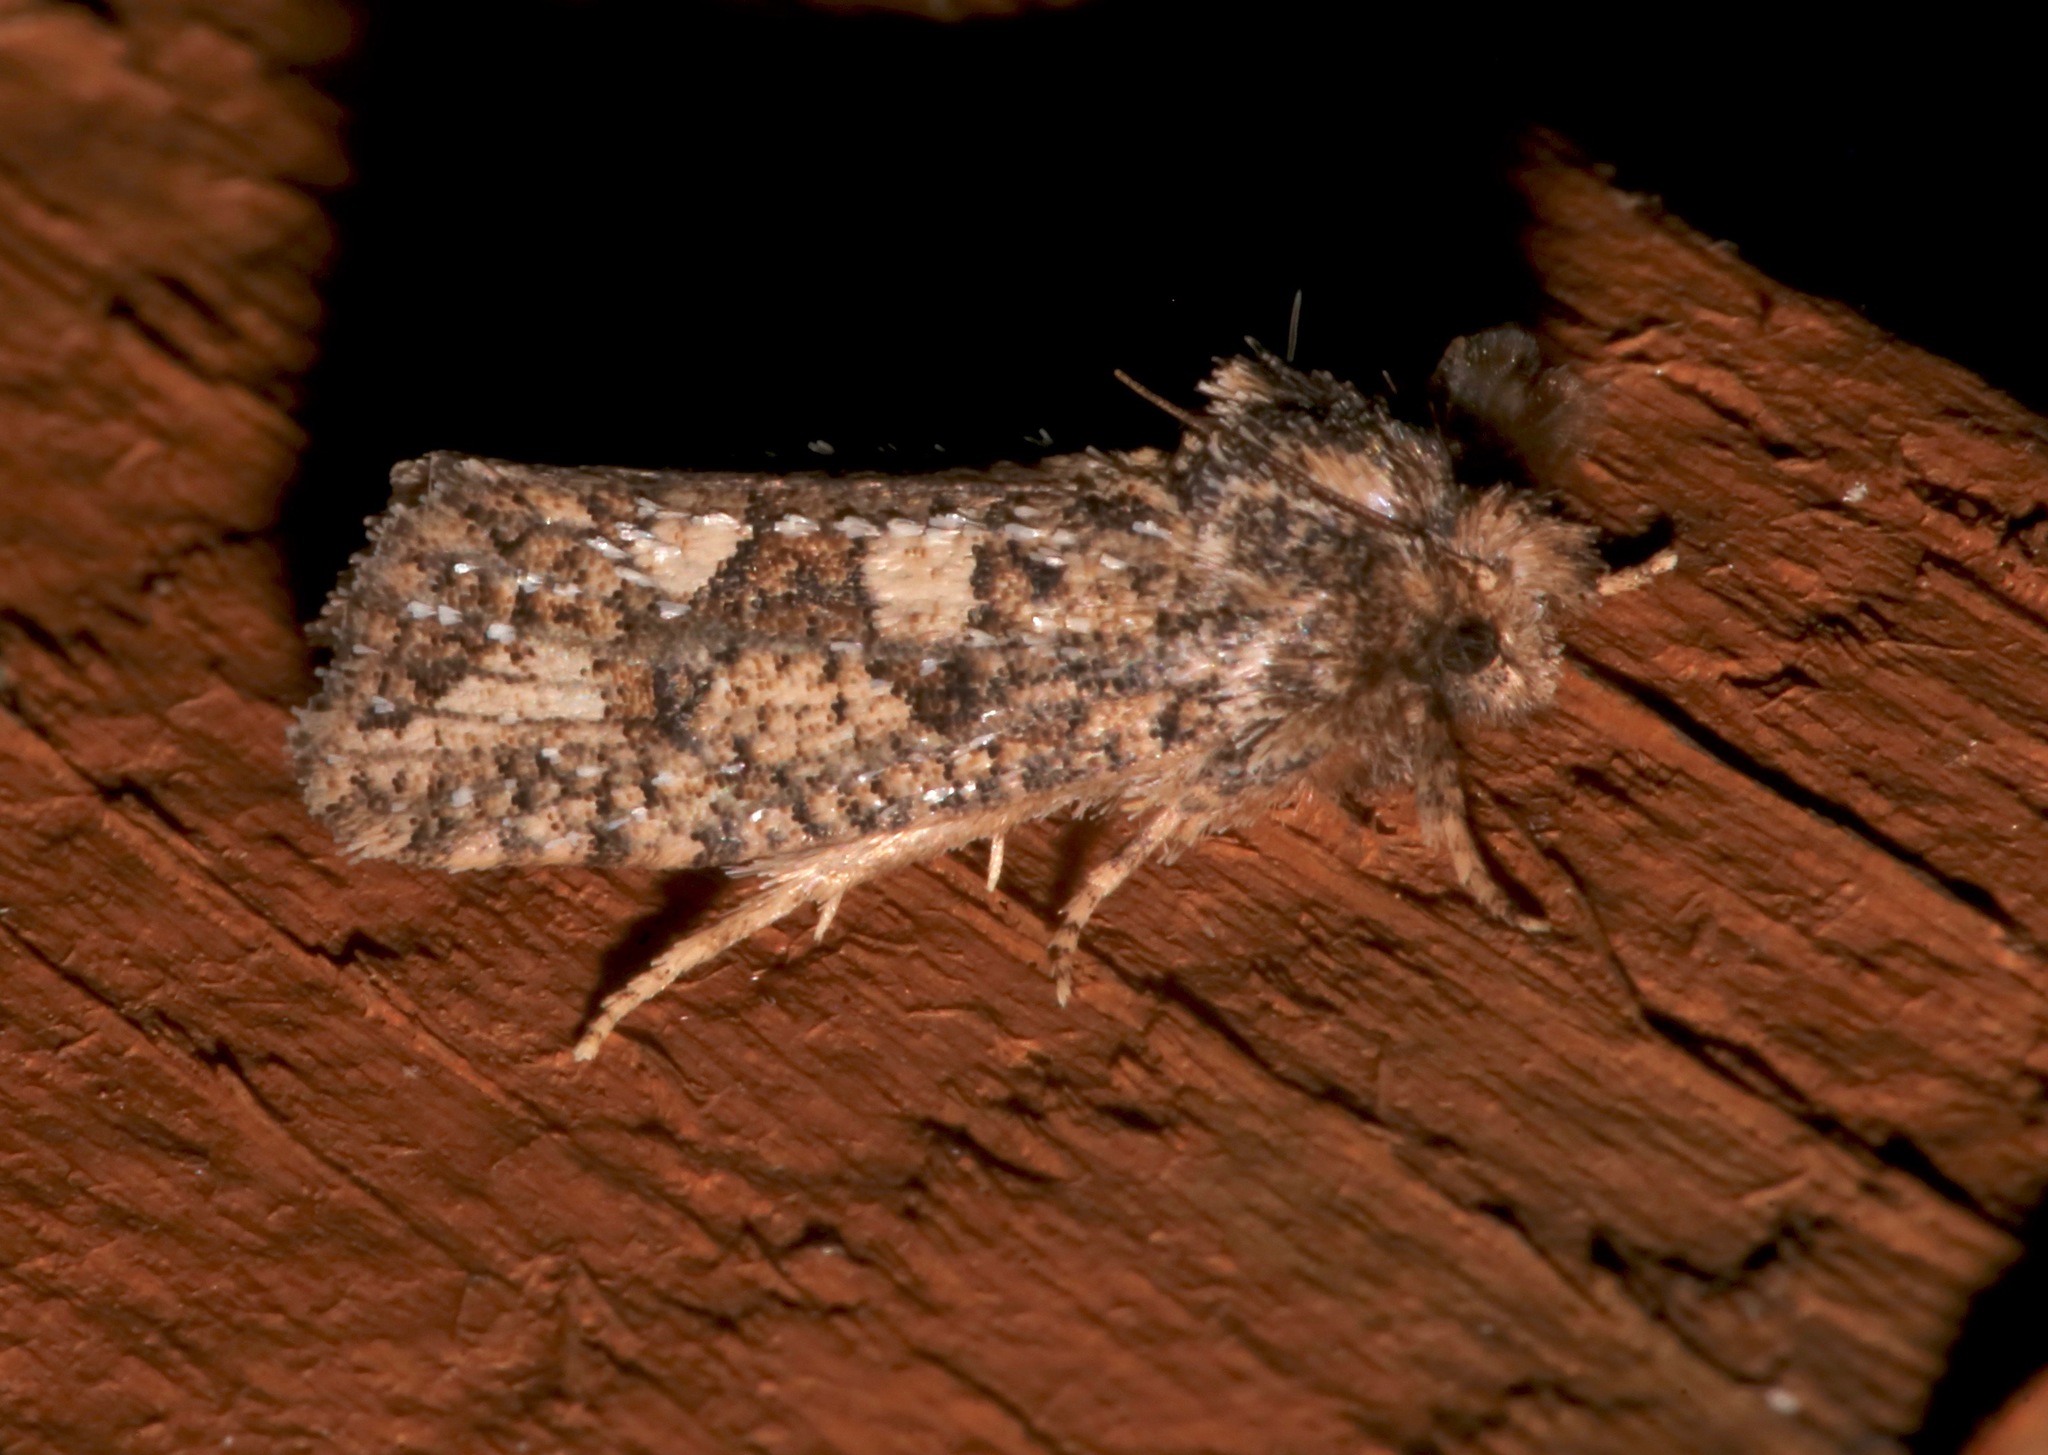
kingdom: Animalia
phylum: Arthropoda
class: Insecta
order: Lepidoptera
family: Tineidae
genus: Acrolophus
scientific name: Acrolophus arcanella
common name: Arcane grass tubeworm moth
